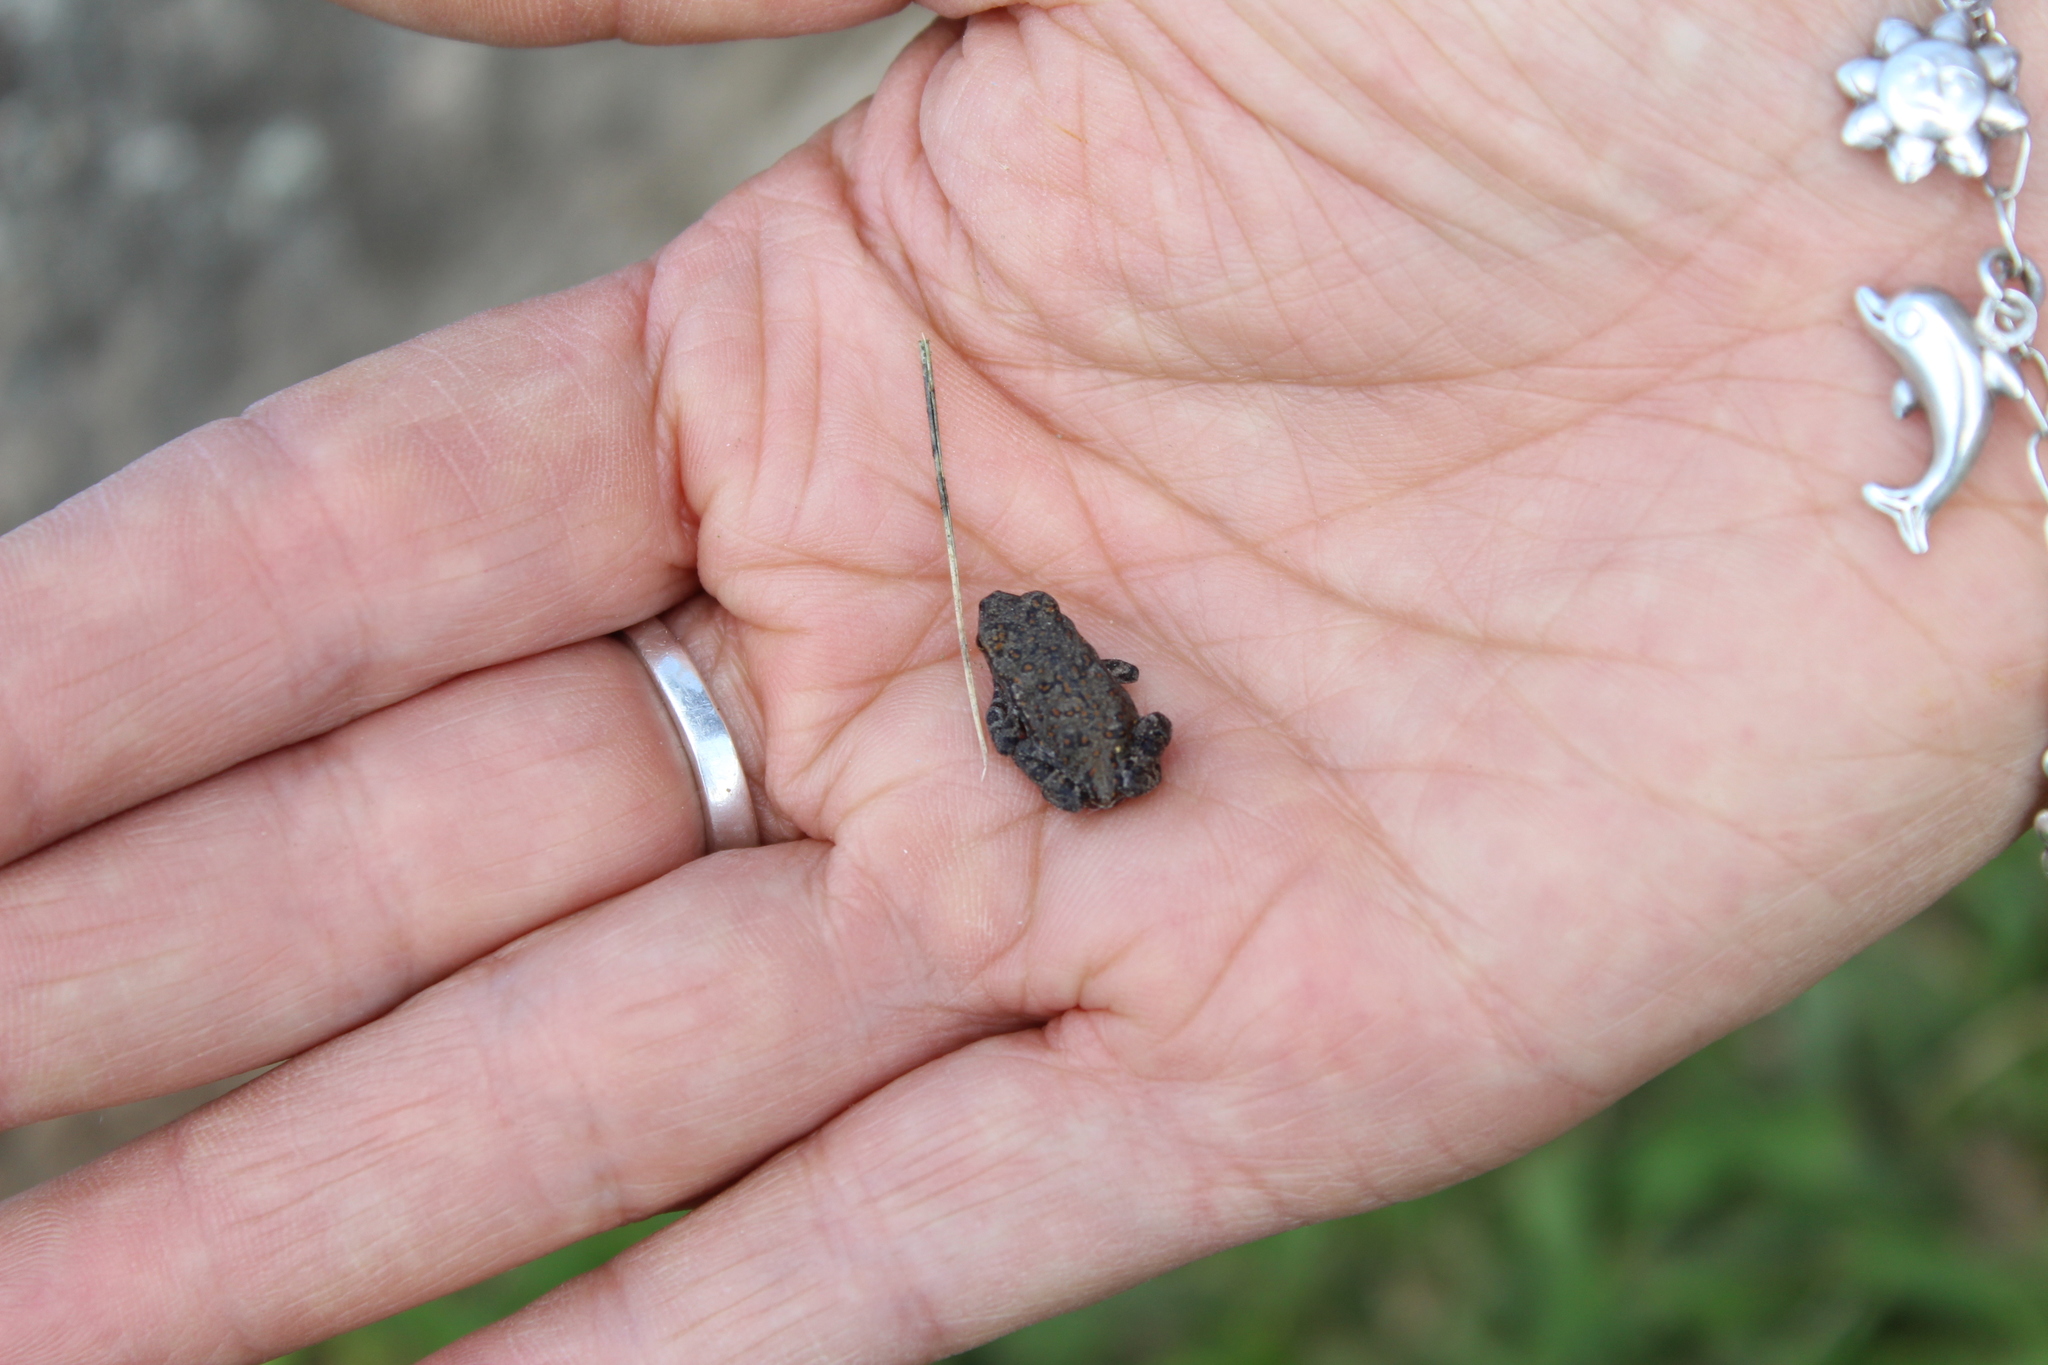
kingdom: Animalia
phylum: Chordata
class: Amphibia
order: Anura
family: Bufonidae
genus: Rhinella
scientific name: Rhinella horribilis
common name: Mesoamerican cane toad
